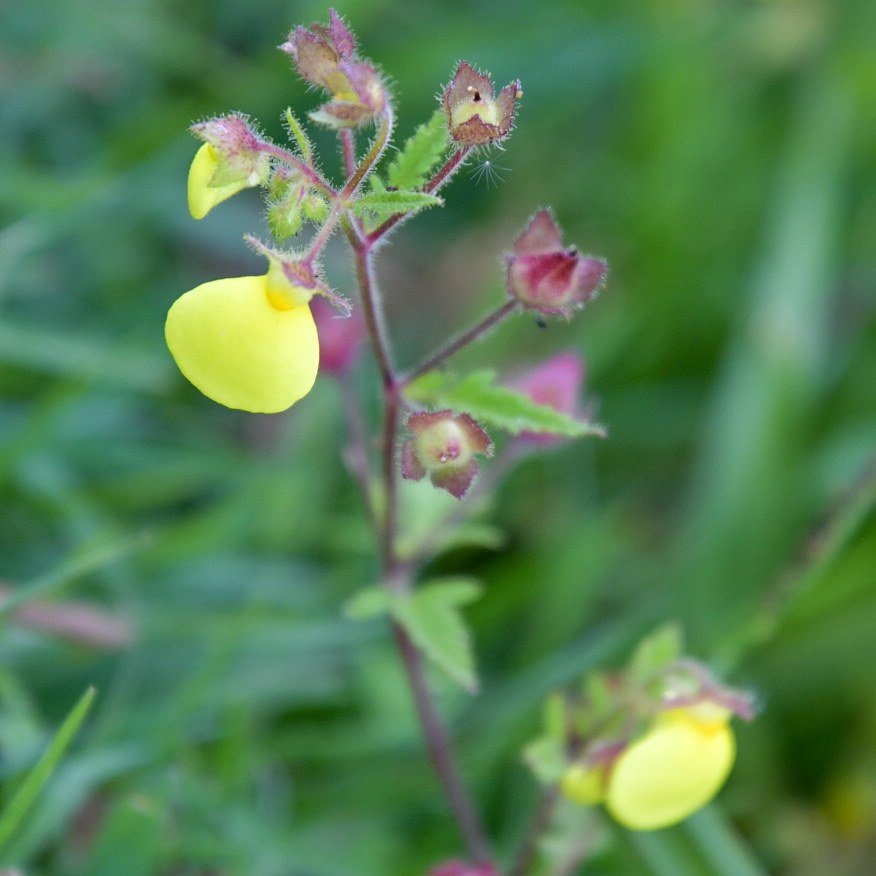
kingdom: Plantae
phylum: Tracheophyta
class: Magnoliopsida
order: Lamiales
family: Calceolariaceae
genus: Calceolaria
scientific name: Calceolaria tripartita
